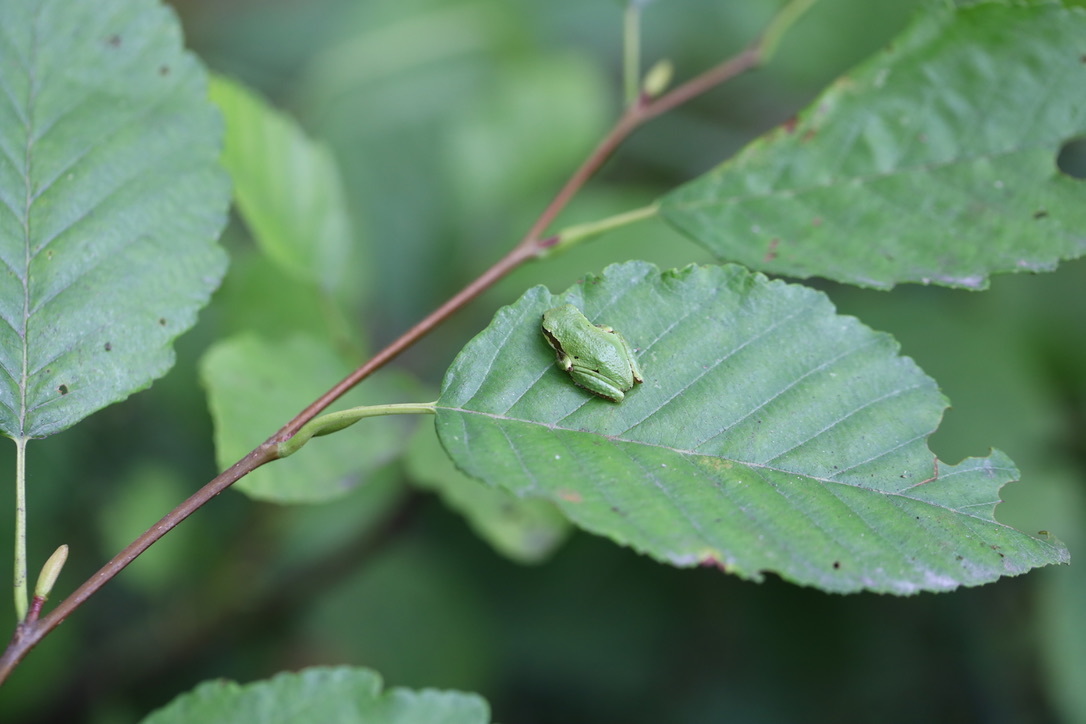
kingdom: Animalia
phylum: Chordata
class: Amphibia
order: Anura
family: Hylidae
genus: Pseudacris
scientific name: Pseudacris regilla
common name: Pacific chorus frog
